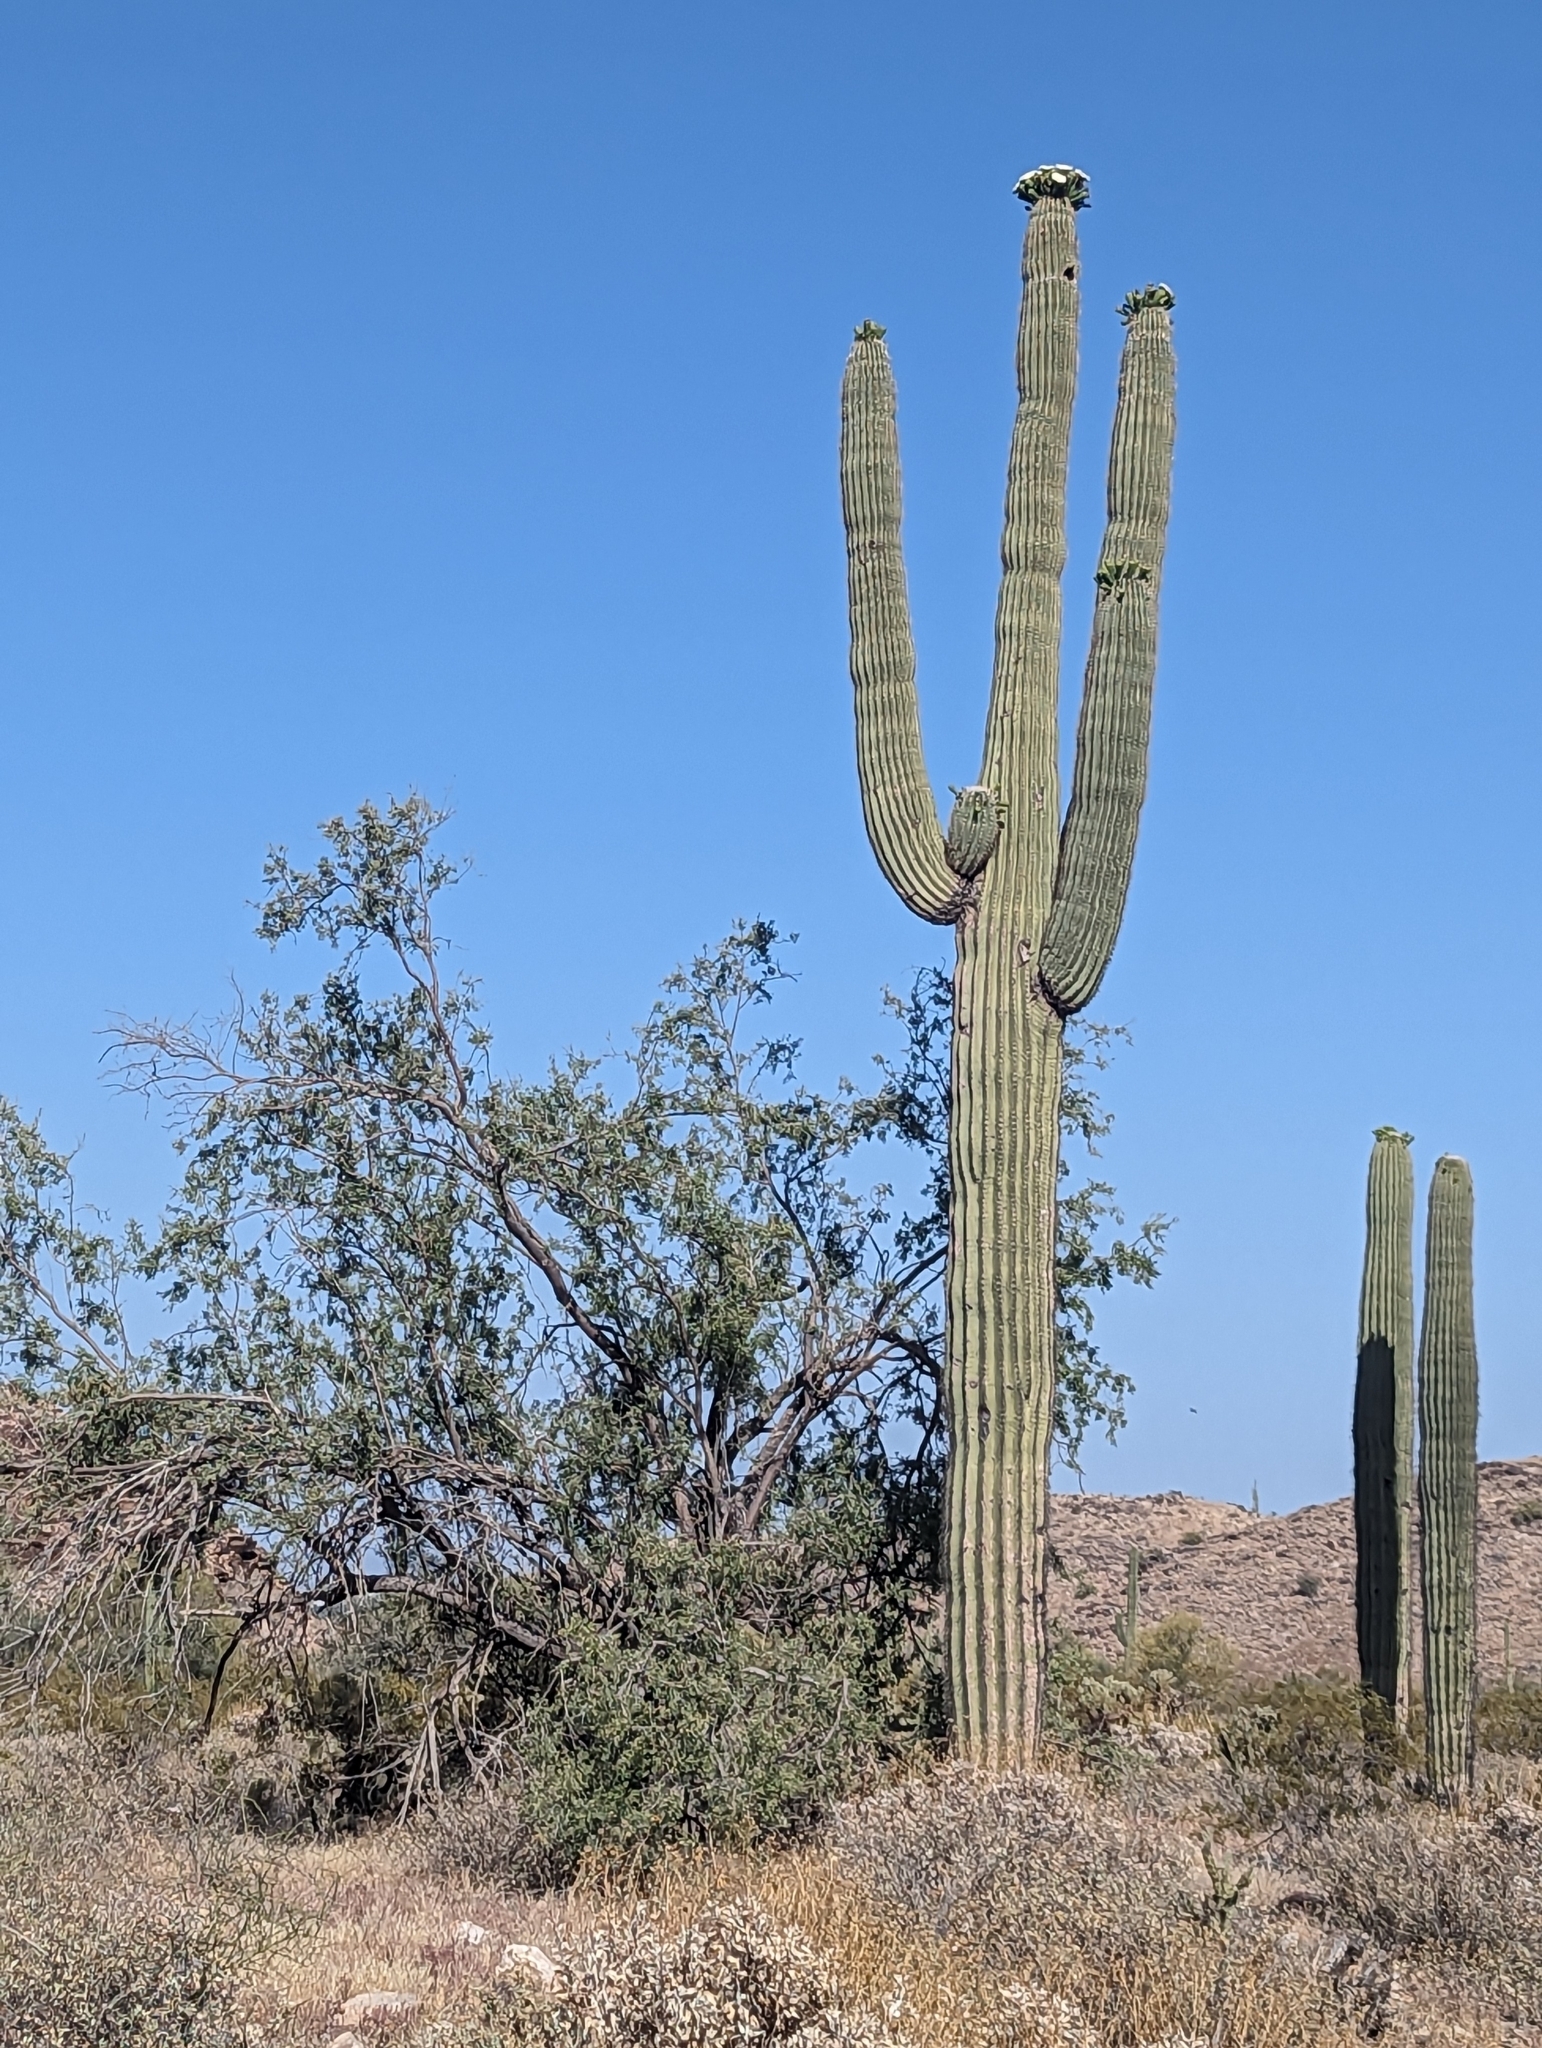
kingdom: Plantae
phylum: Tracheophyta
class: Magnoliopsida
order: Caryophyllales
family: Cactaceae
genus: Carnegiea
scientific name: Carnegiea gigantea
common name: Saguaro
